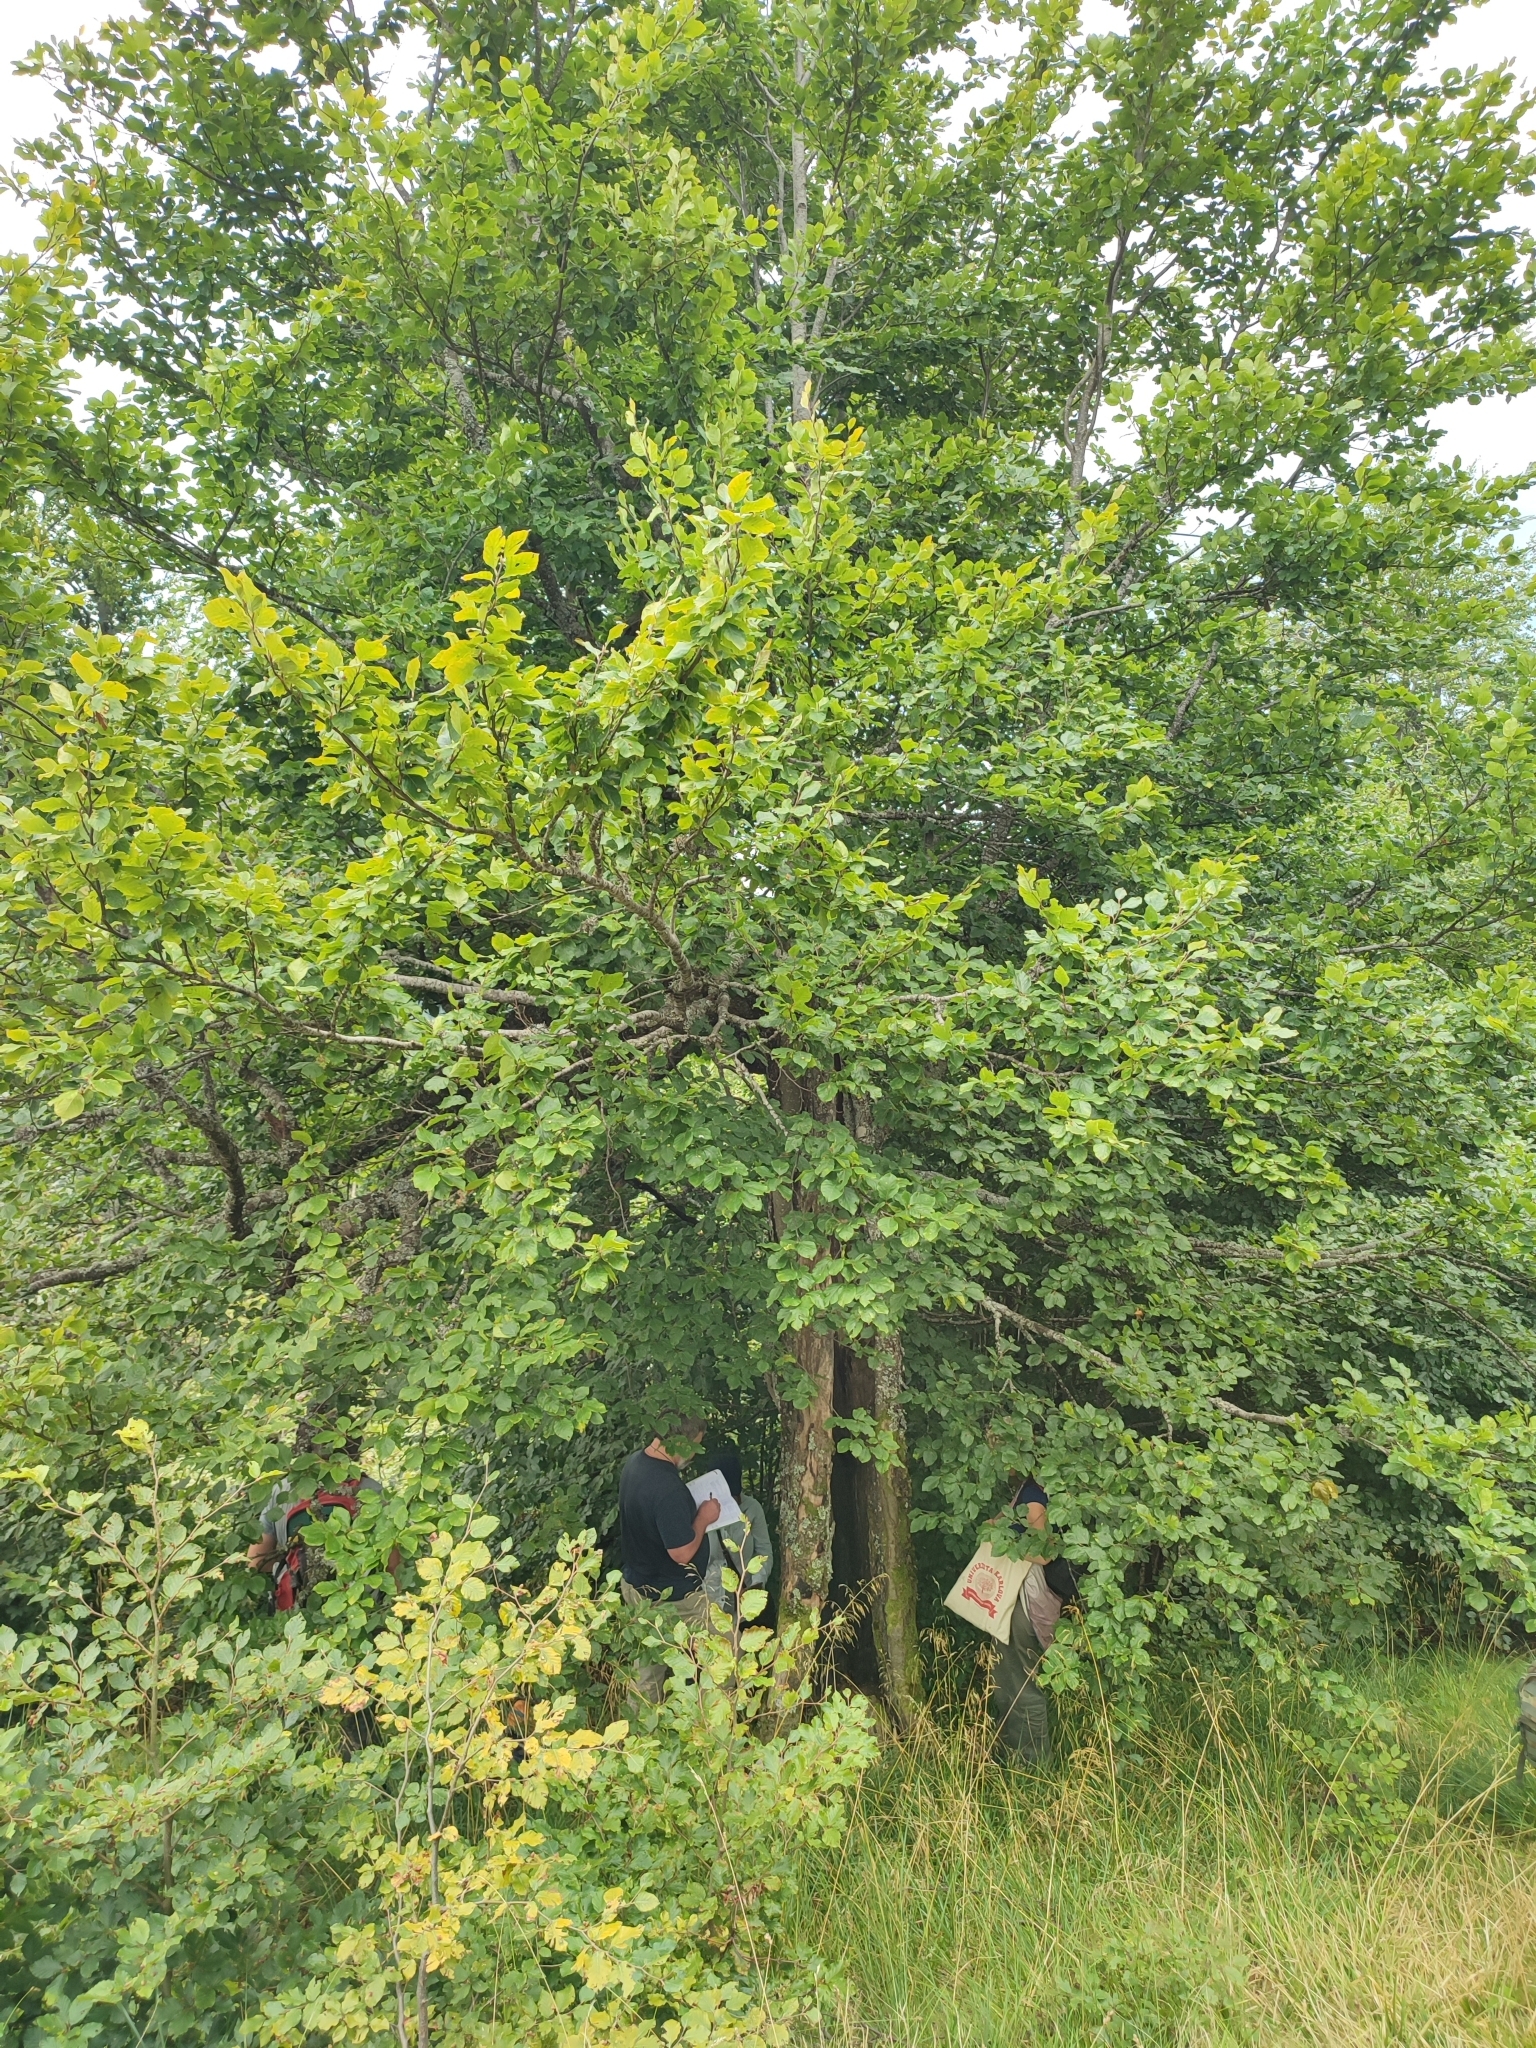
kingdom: Plantae
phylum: Tracheophyta
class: Magnoliopsida
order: Fagales
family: Fagaceae
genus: Fagus
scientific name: Fagus sylvatica
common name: Beech
